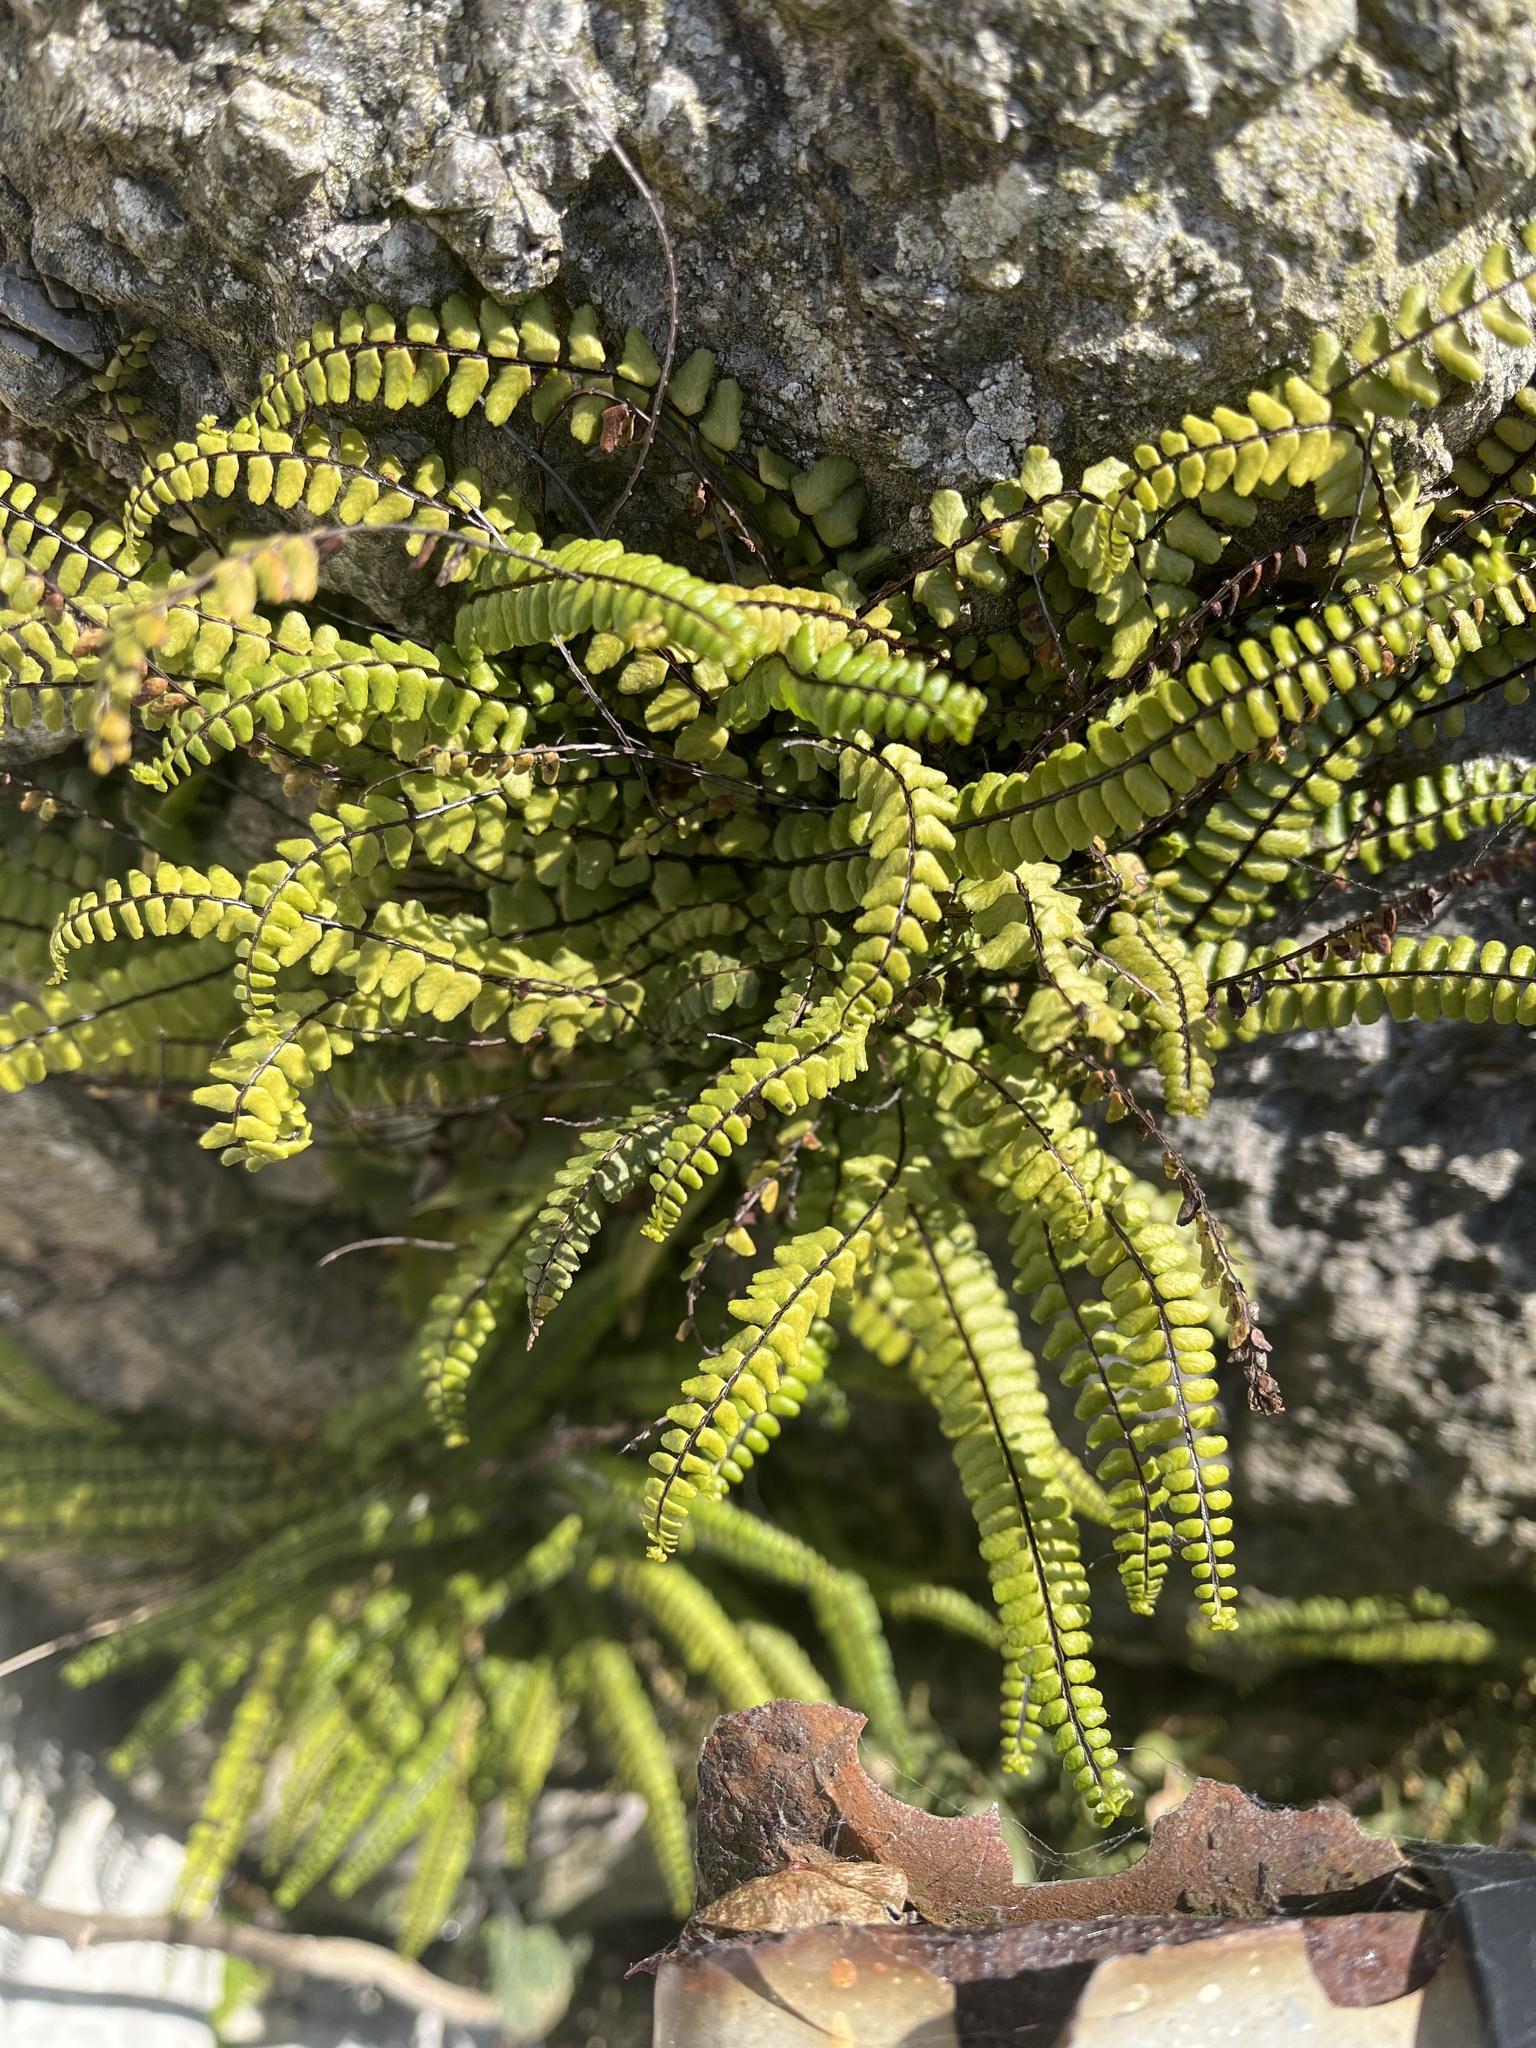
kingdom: Plantae
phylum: Tracheophyta
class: Polypodiopsida
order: Polypodiales
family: Aspleniaceae
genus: Asplenium
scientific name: Asplenium trichomanes
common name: Maidenhair spleenwort
